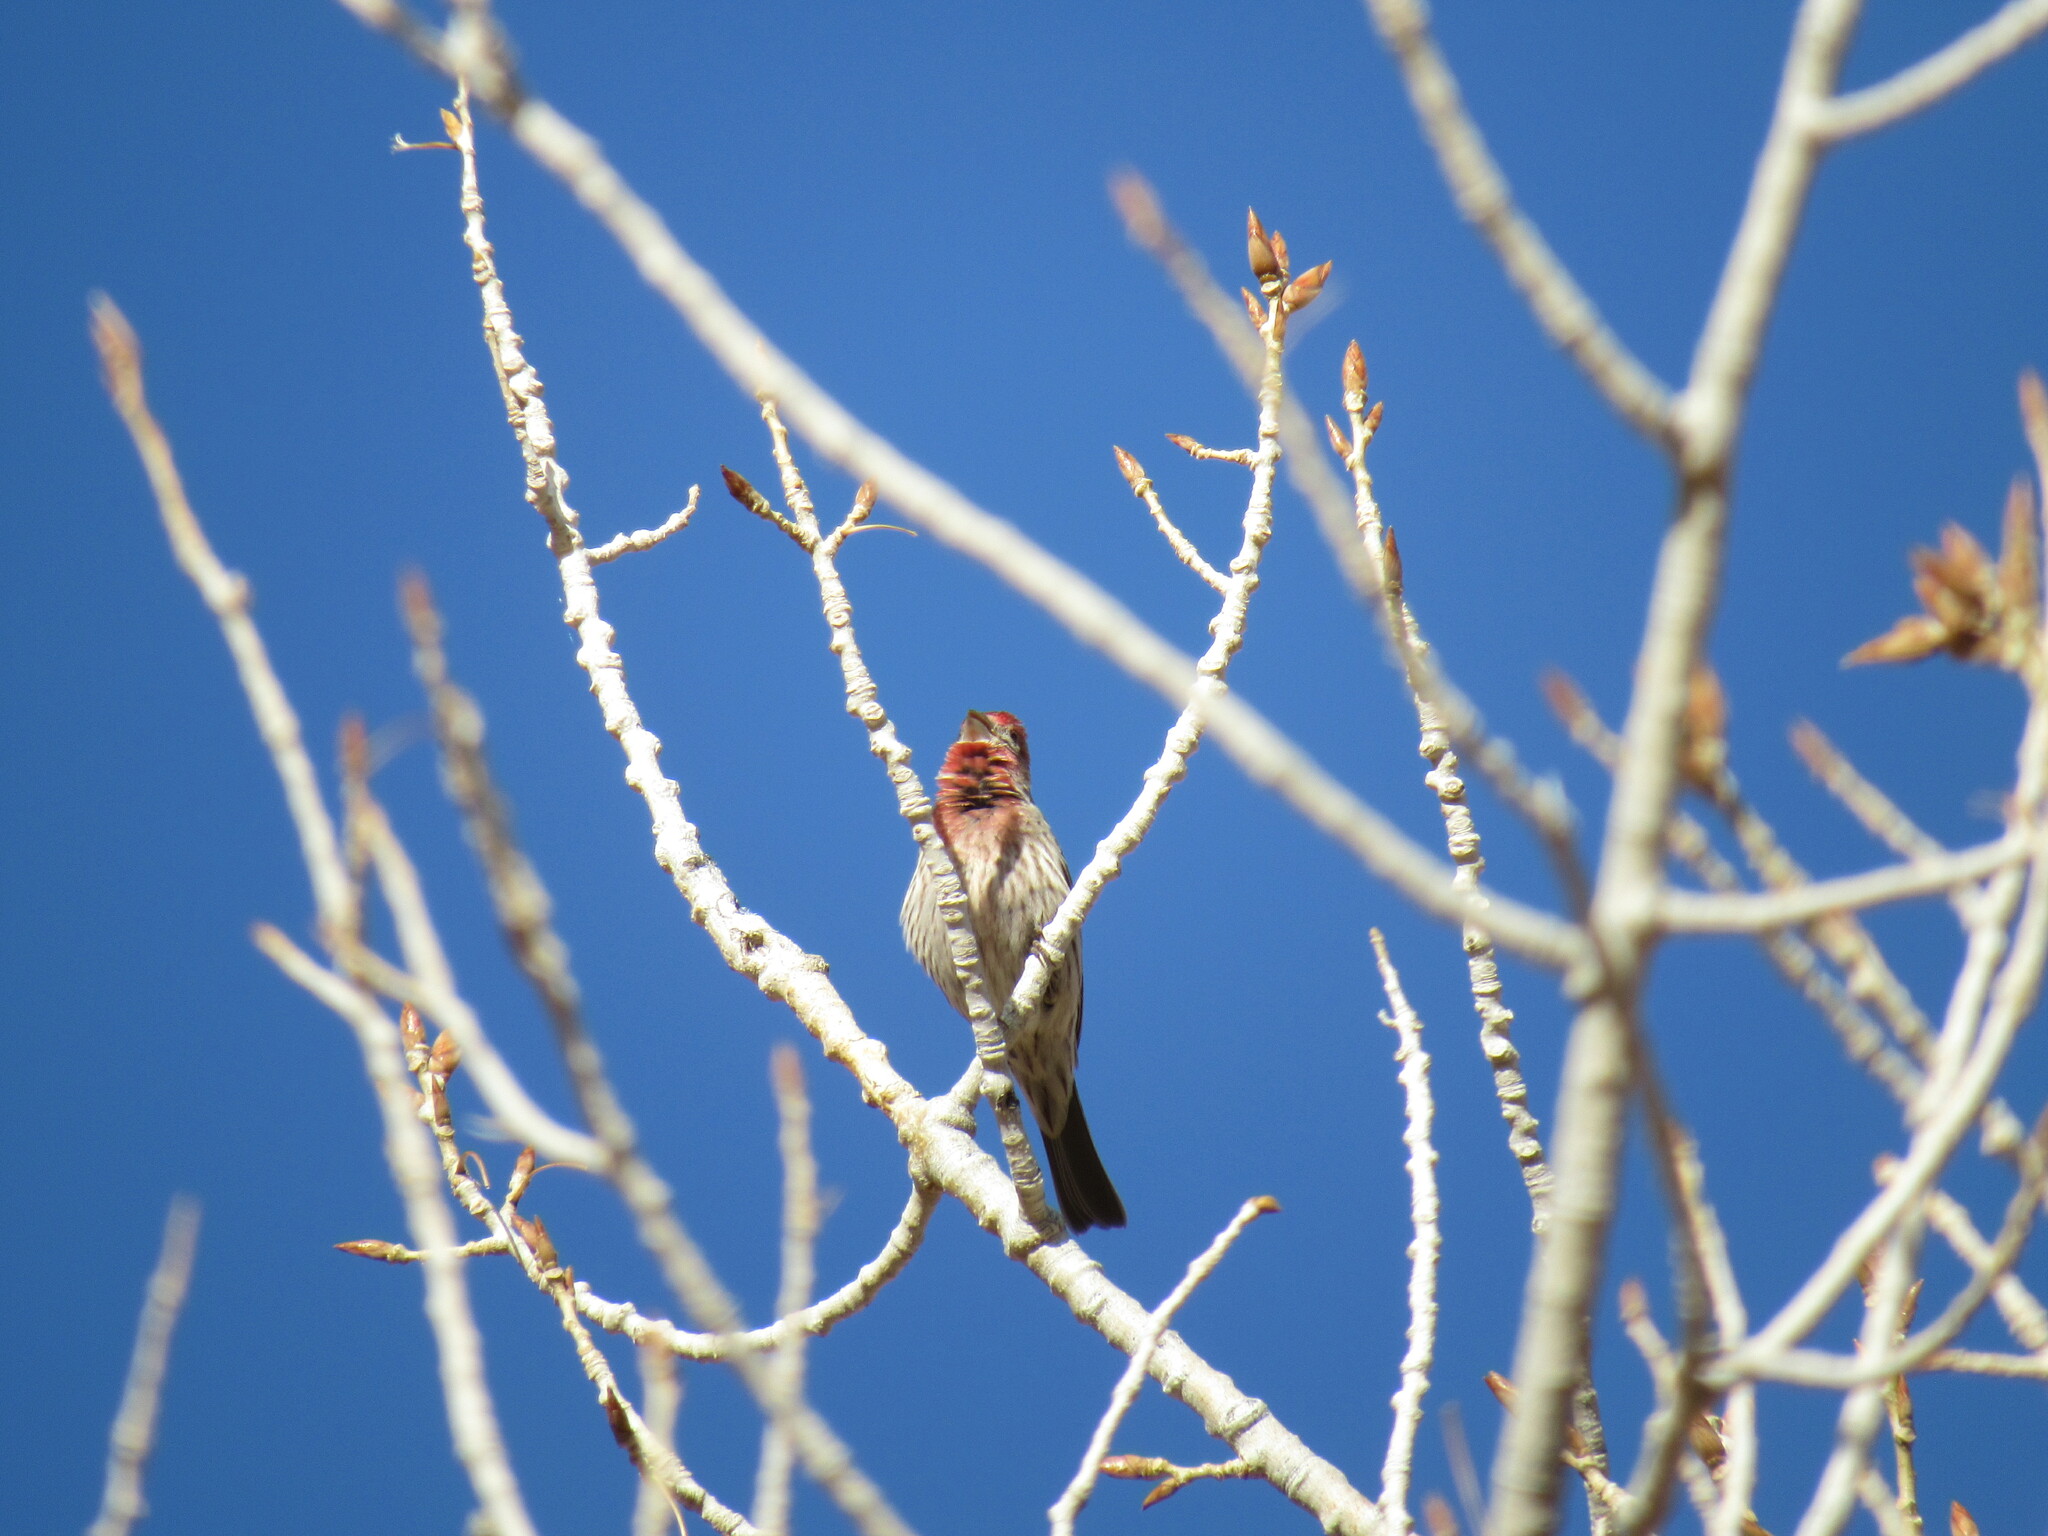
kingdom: Animalia
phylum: Chordata
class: Aves
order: Passeriformes
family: Fringillidae
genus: Haemorhous
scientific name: Haemorhous mexicanus
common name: House finch
